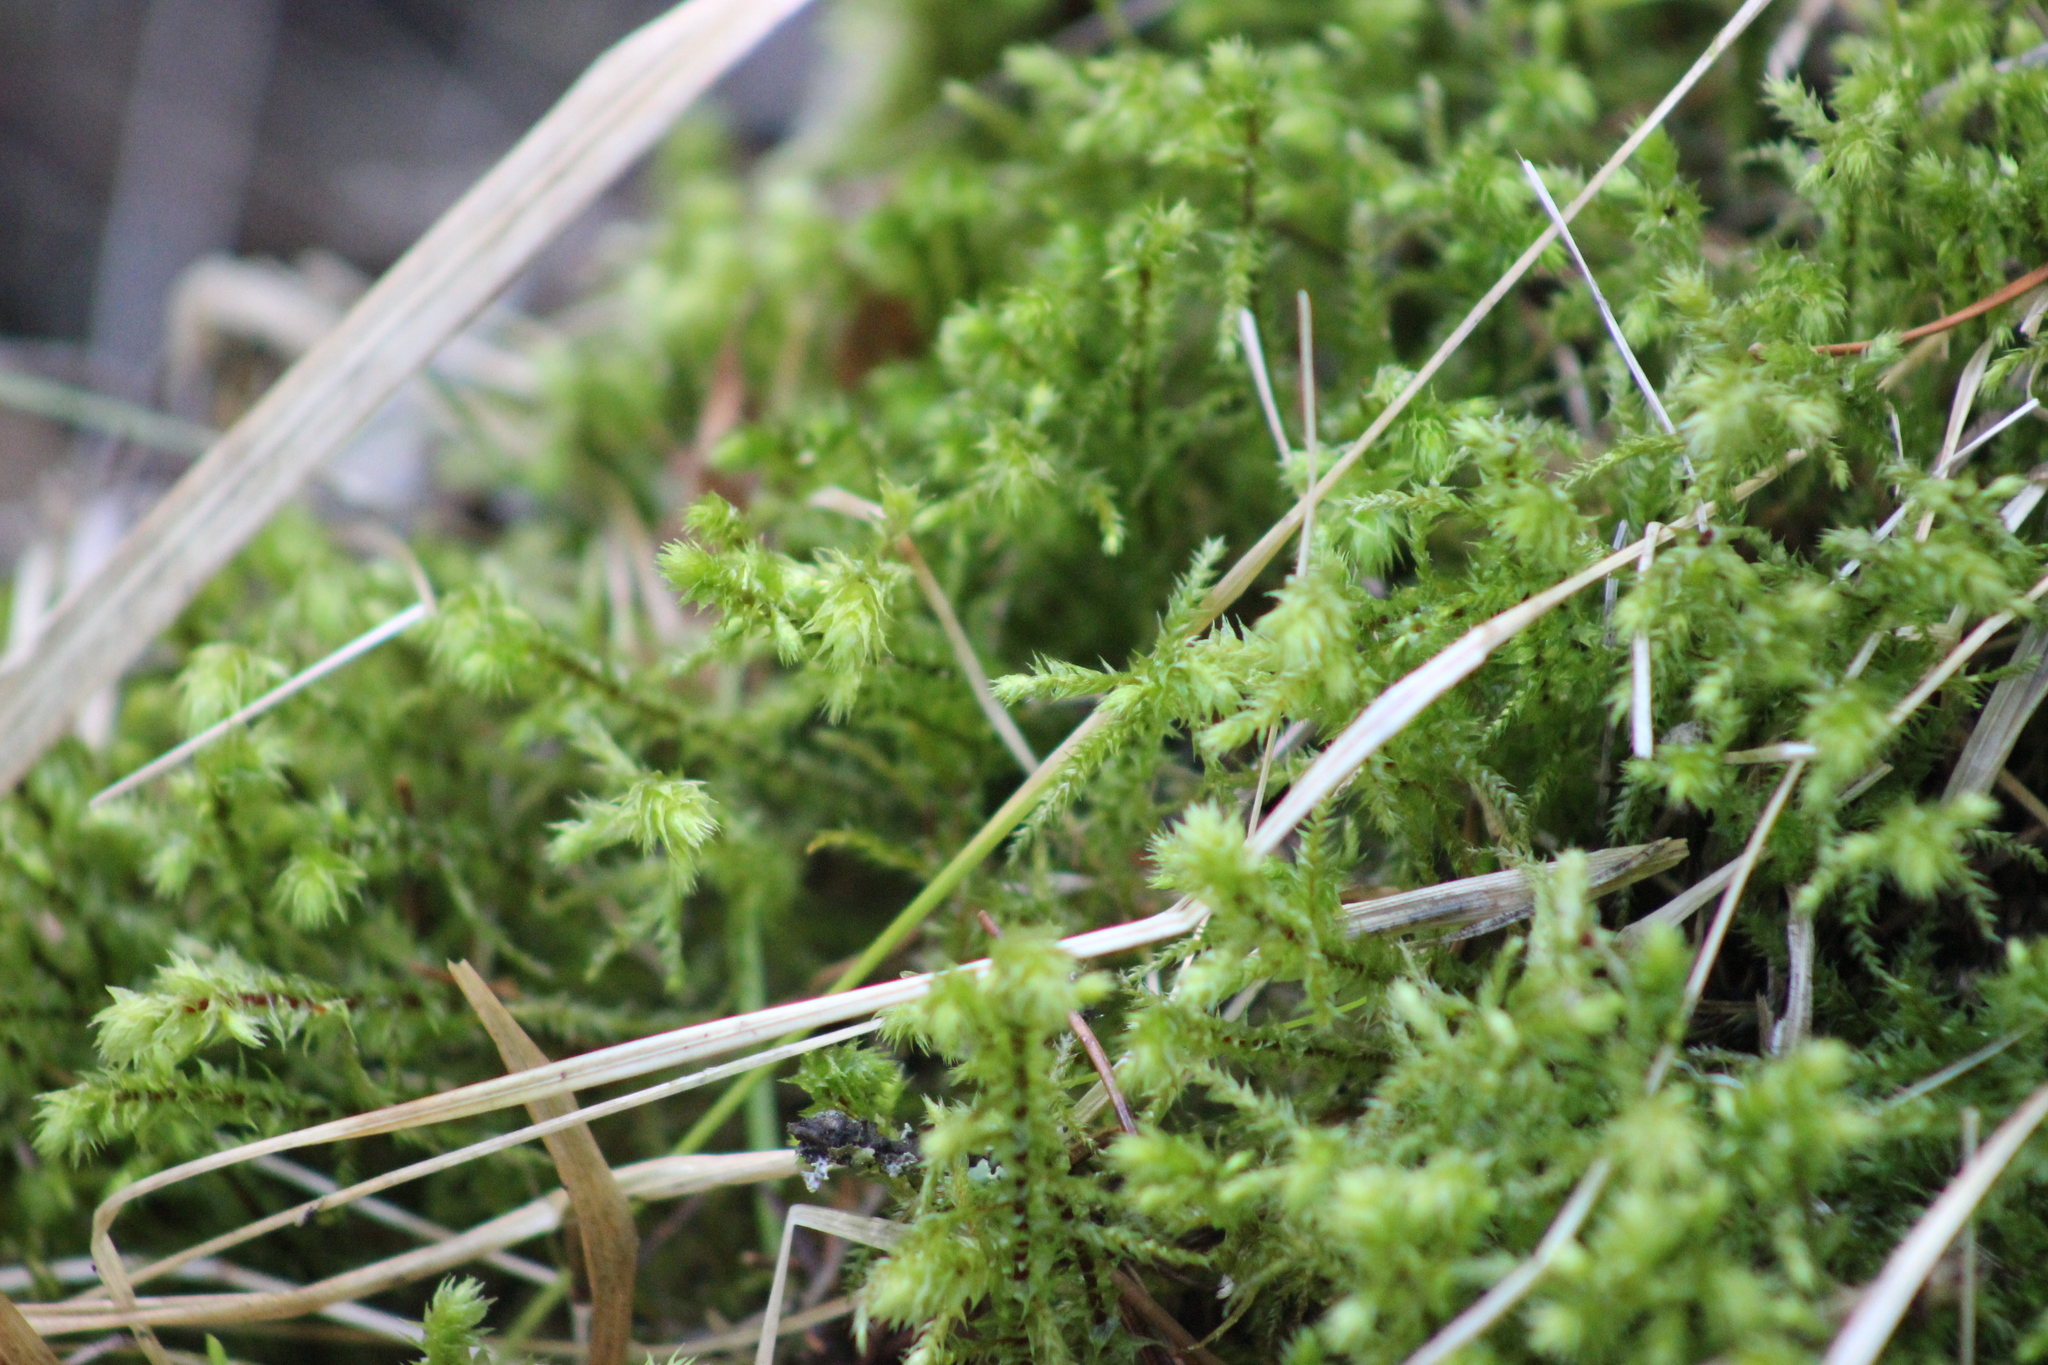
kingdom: Plantae
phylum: Bryophyta
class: Bryopsida
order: Hypnales
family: Hylocomiaceae
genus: Hylocomiadelphus
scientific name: Hylocomiadelphus triquetrus
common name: Rough goose neck moss
